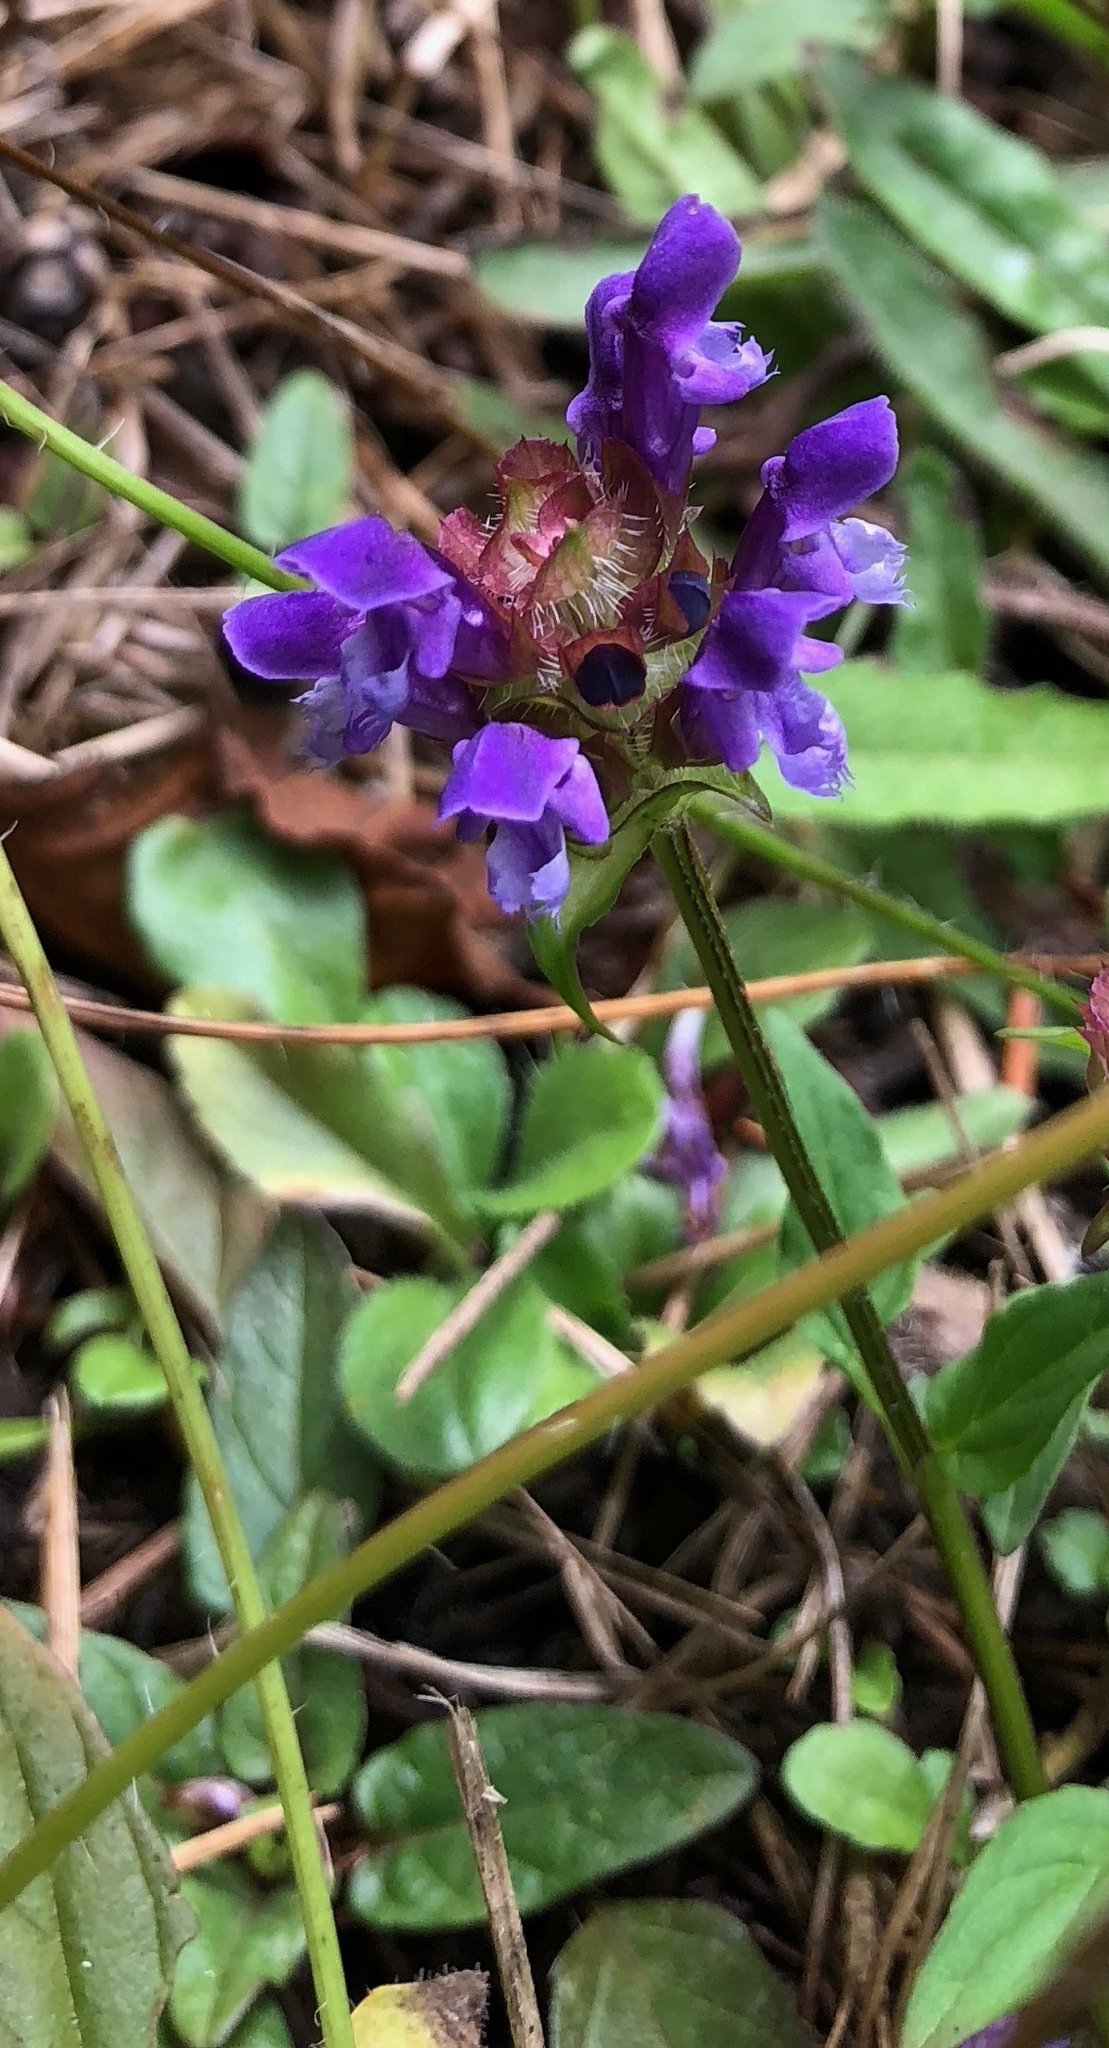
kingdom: Plantae
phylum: Tracheophyta
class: Magnoliopsida
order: Lamiales
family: Lamiaceae
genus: Prunella
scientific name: Prunella vulgaris
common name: Heal-all
